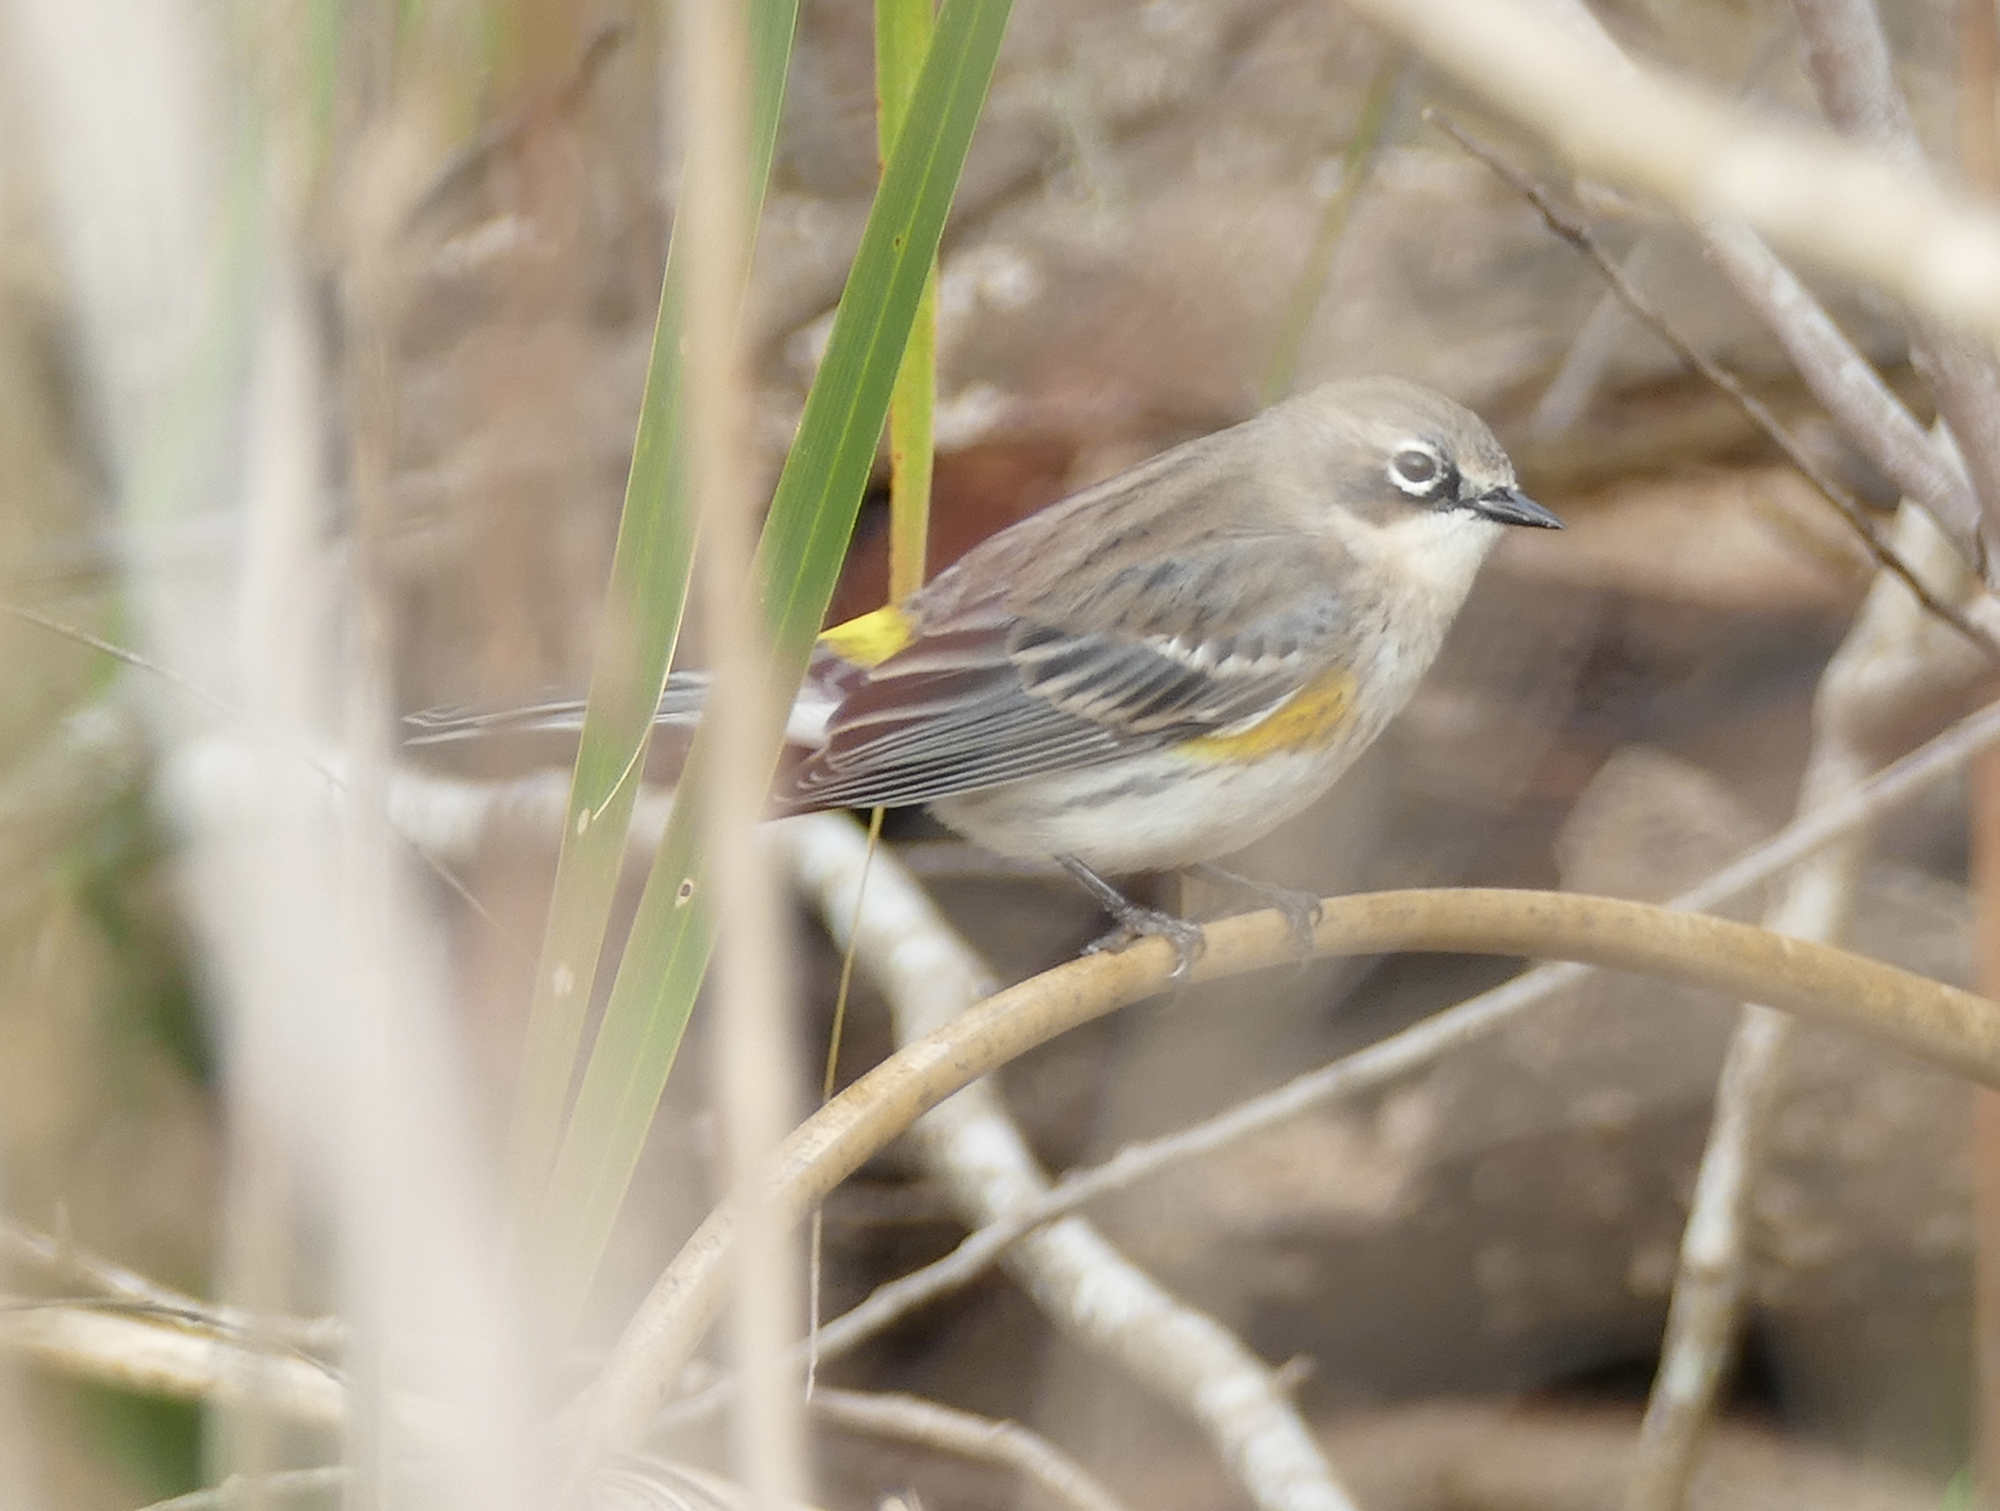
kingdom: Animalia
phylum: Chordata
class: Aves
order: Passeriformes
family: Parulidae
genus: Setophaga
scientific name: Setophaga coronata
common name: Myrtle warbler
